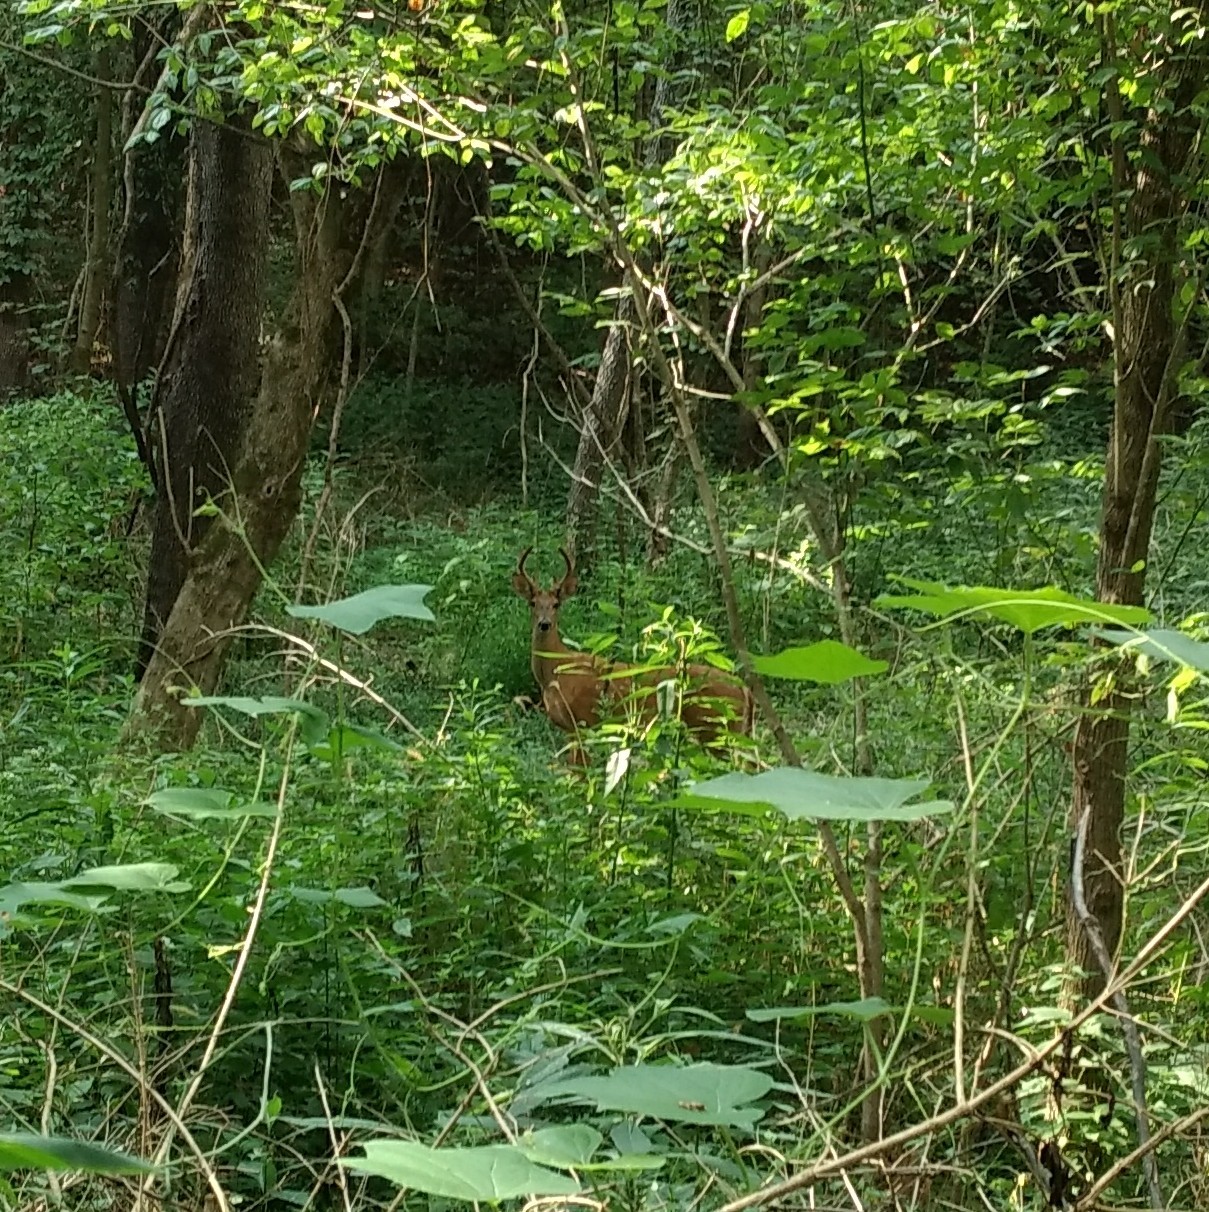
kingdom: Animalia
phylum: Chordata
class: Mammalia
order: Artiodactyla
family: Cervidae
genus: Odocoileus
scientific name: Odocoileus virginianus
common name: White-tailed deer
